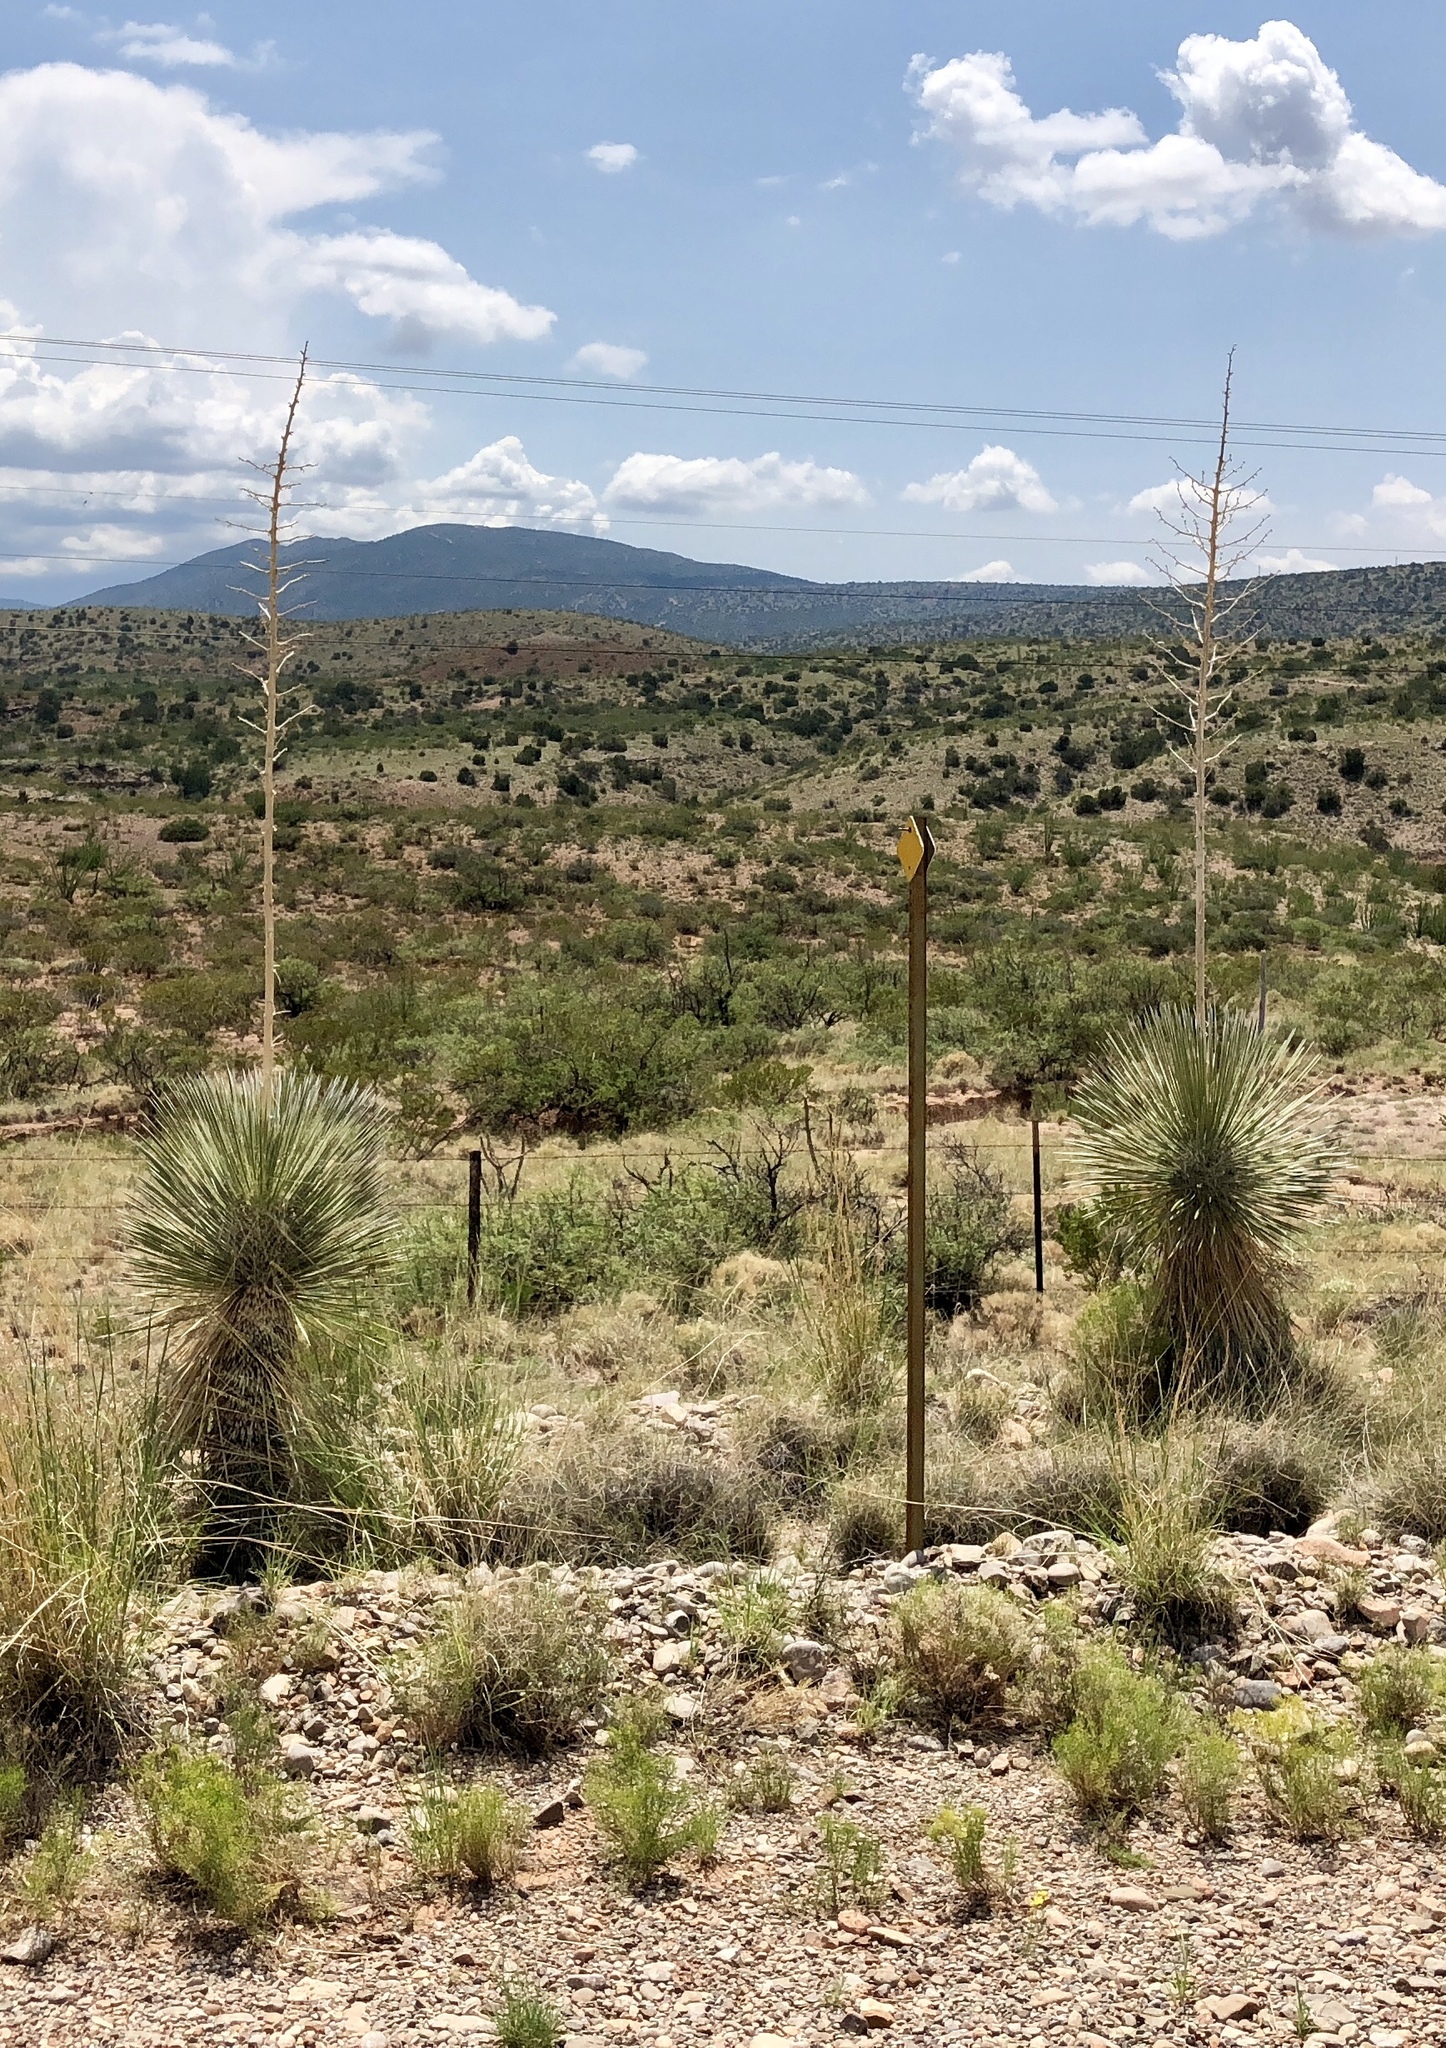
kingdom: Plantae
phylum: Tracheophyta
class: Liliopsida
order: Asparagales
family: Asparagaceae
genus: Yucca
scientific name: Yucca elata
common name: Palmella
